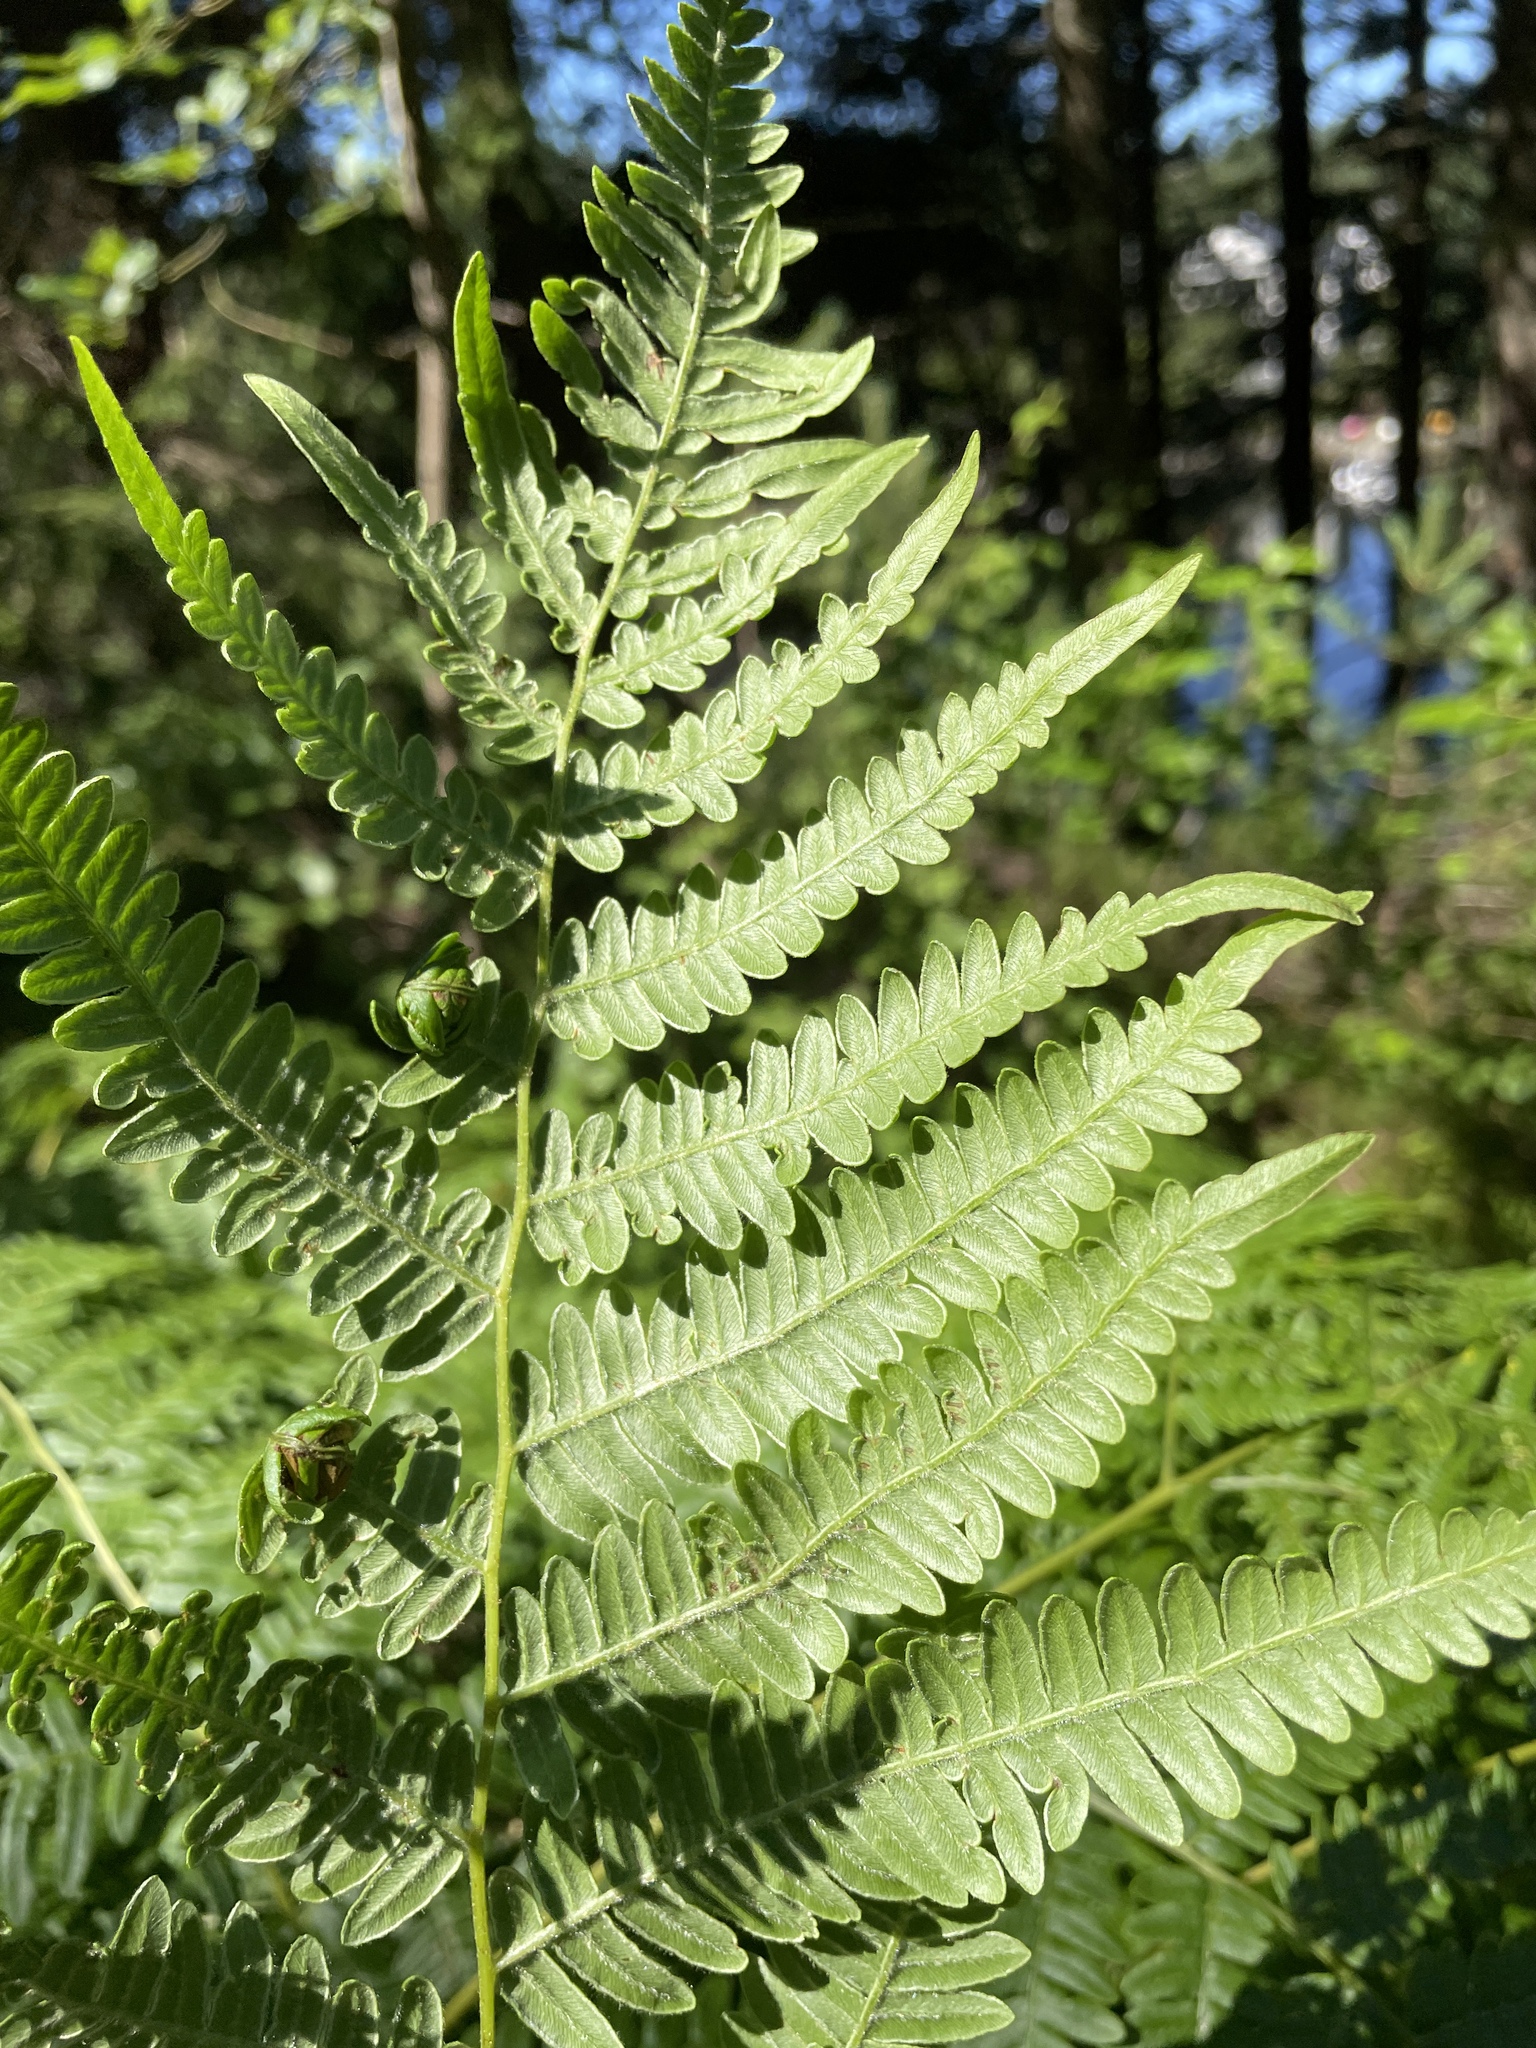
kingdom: Plantae
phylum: Tracheophyta
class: Polypodiopsida
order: Polypodiales
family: Dennstaedtiaceae
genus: Pteridium
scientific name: Pteridium aquilinum
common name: Bracken
